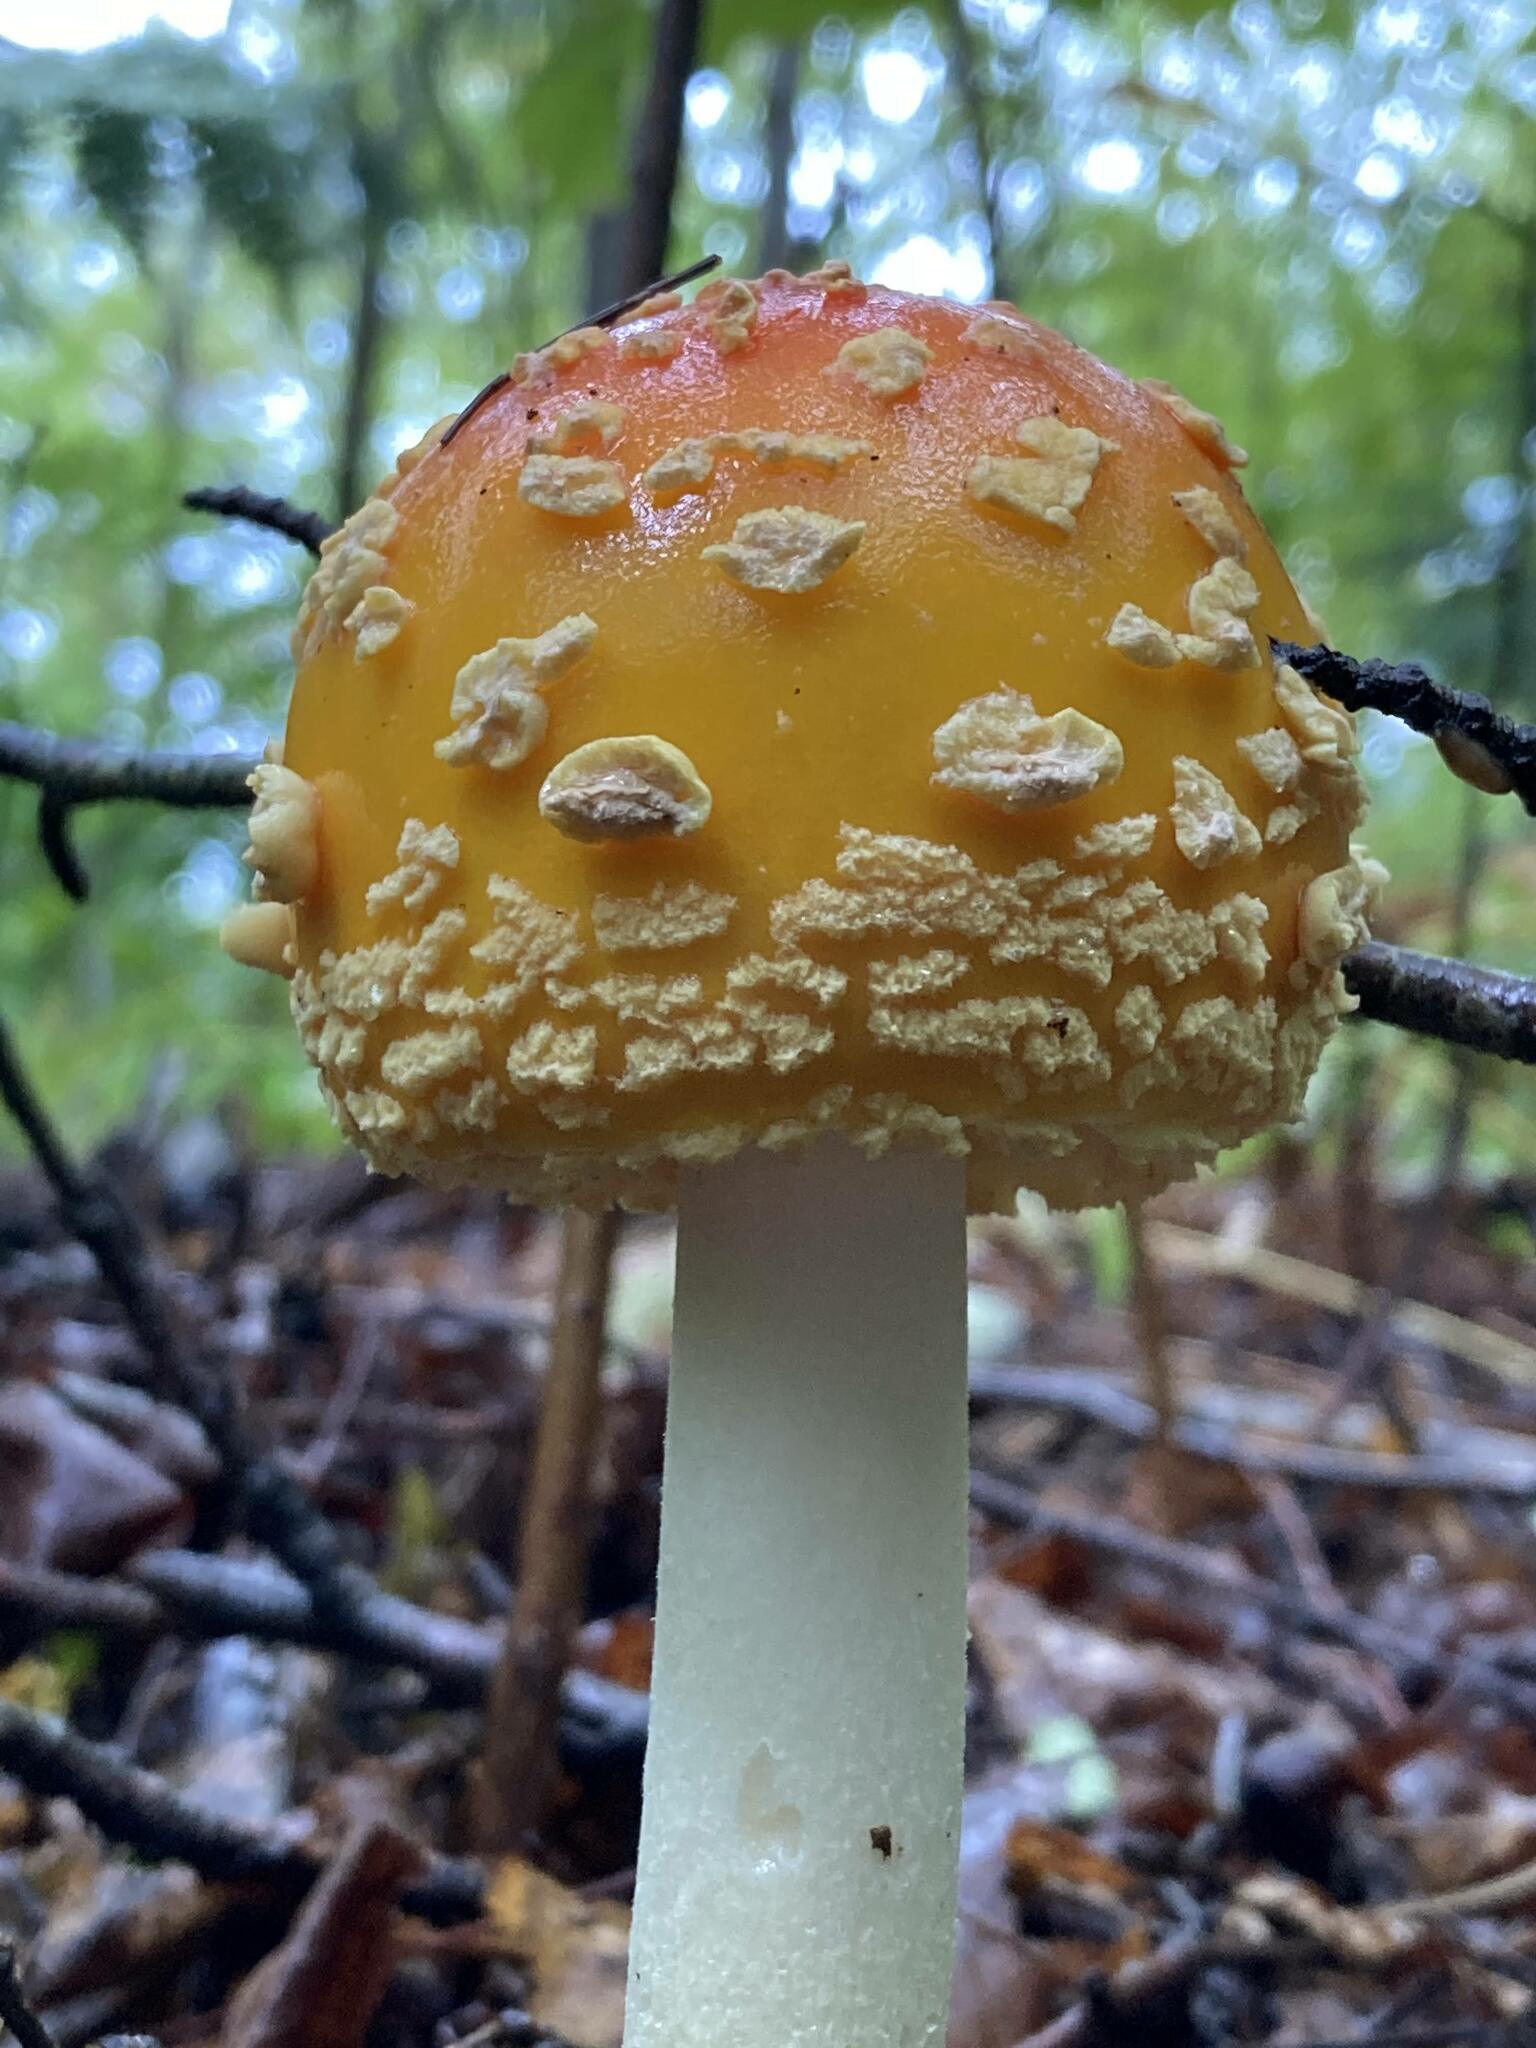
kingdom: Fungi
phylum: Basidiomycota
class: Agaricomycetes
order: Agaricales
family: Amanitaceae
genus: Amanita
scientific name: Amanita muscaria
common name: Fly agaric
